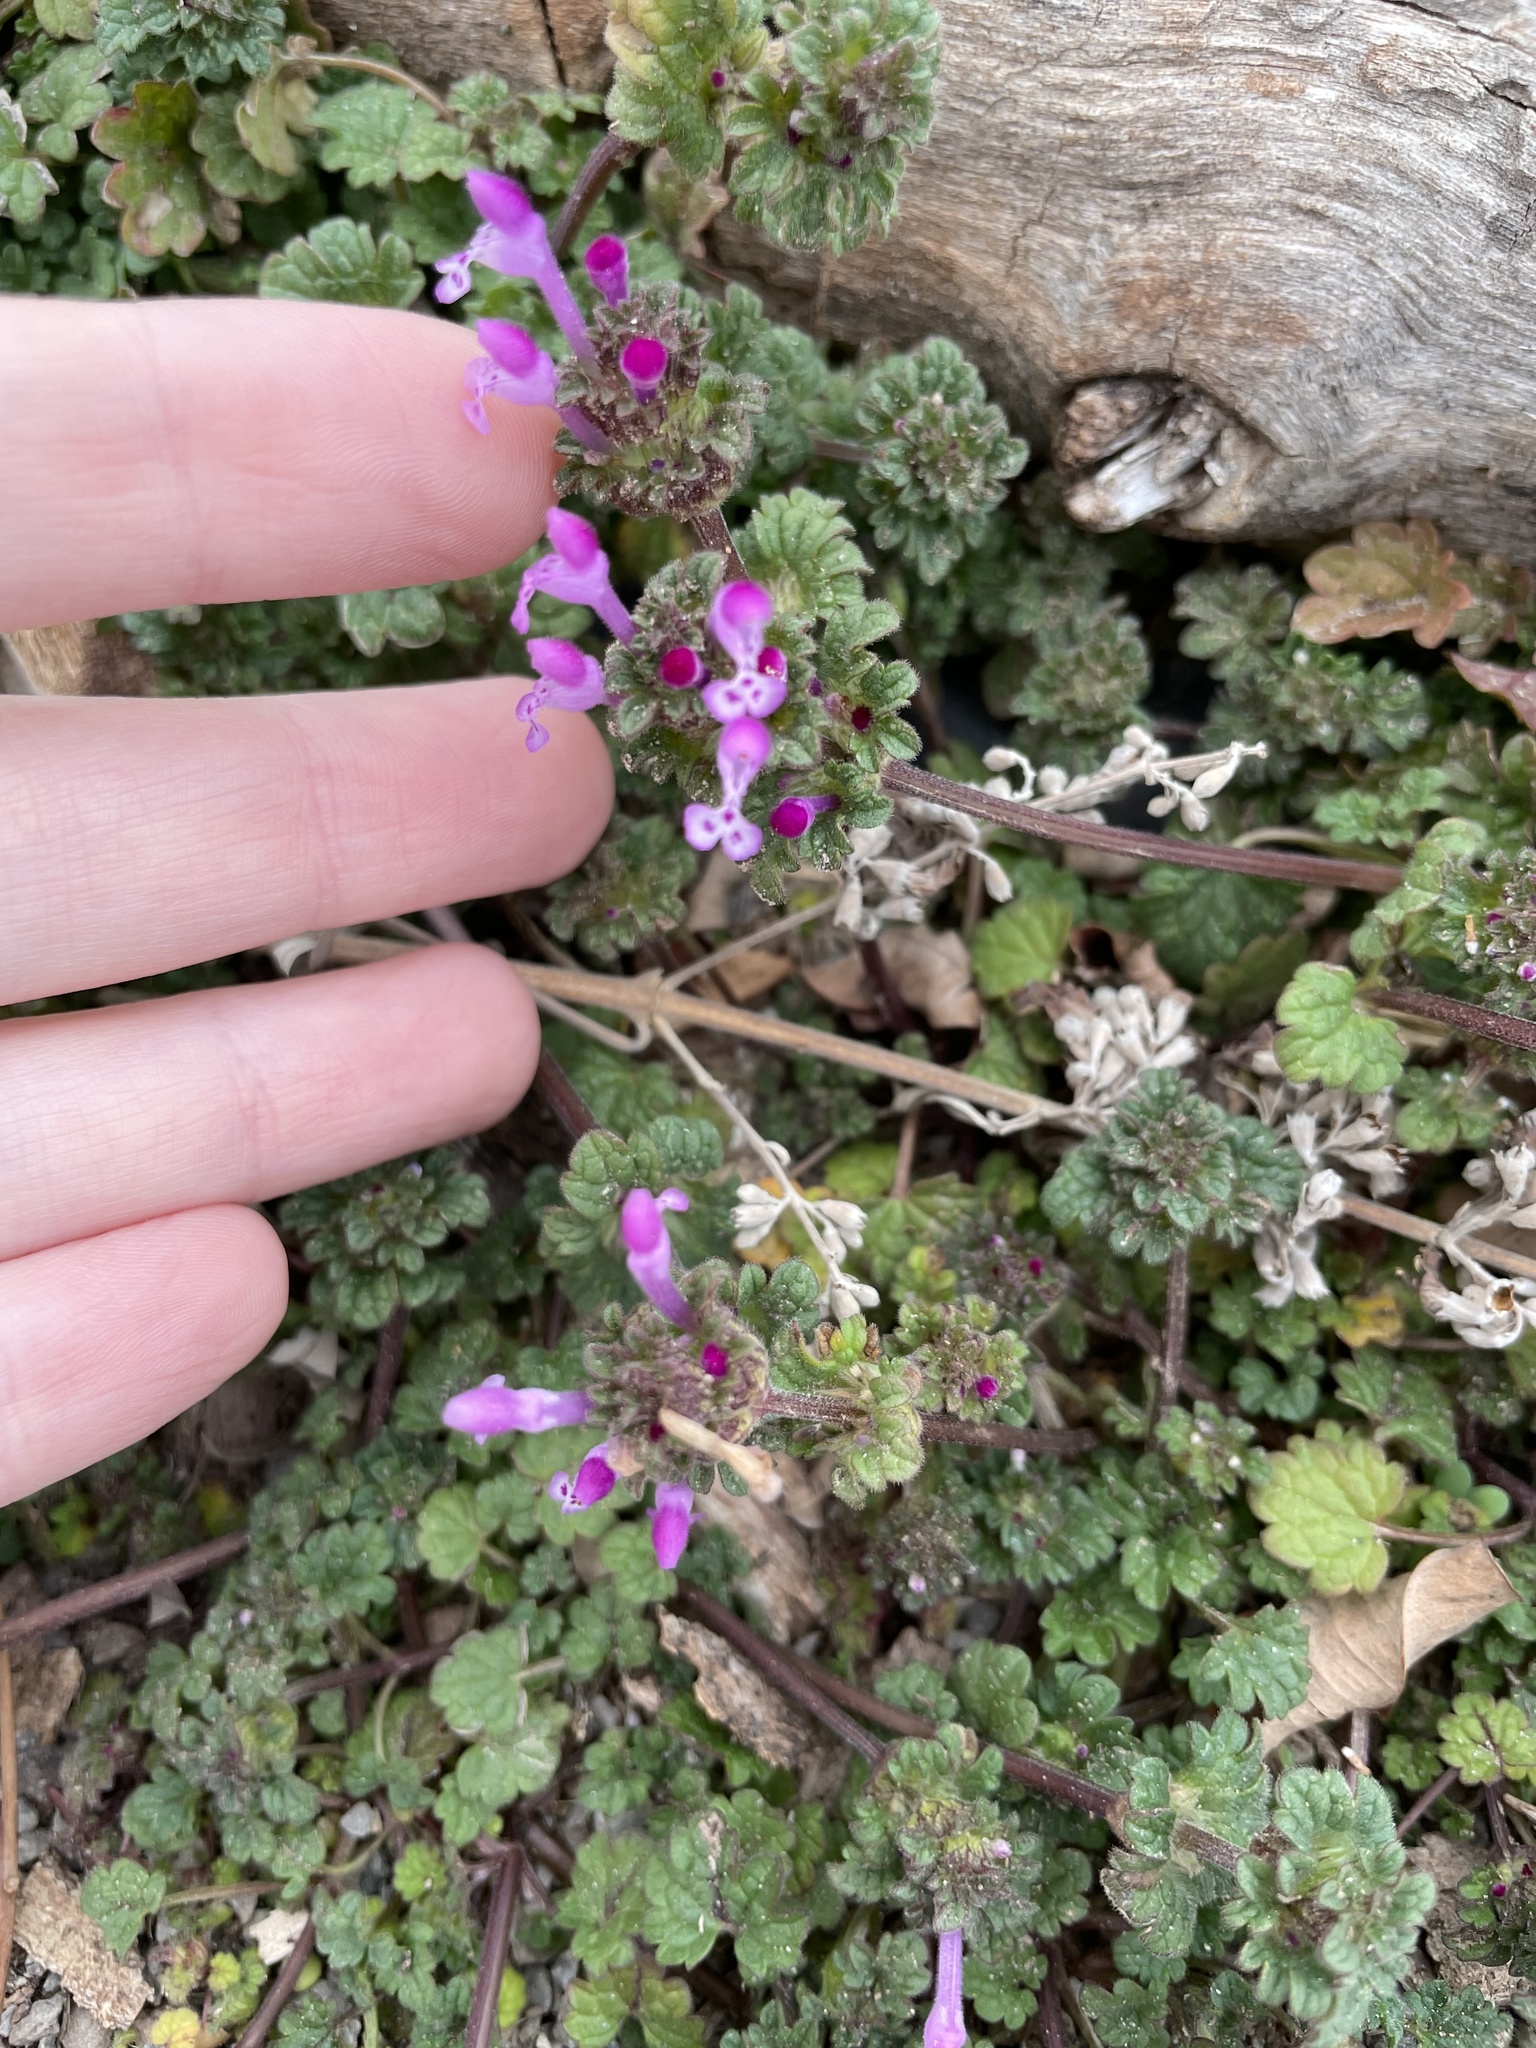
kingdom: Plantae
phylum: Tracheophyta
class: Magnoliopsida
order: Lamiales
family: Lamiaceae
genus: Lamium
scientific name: Lamium amplexicaule
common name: Henbit dead-nettle
